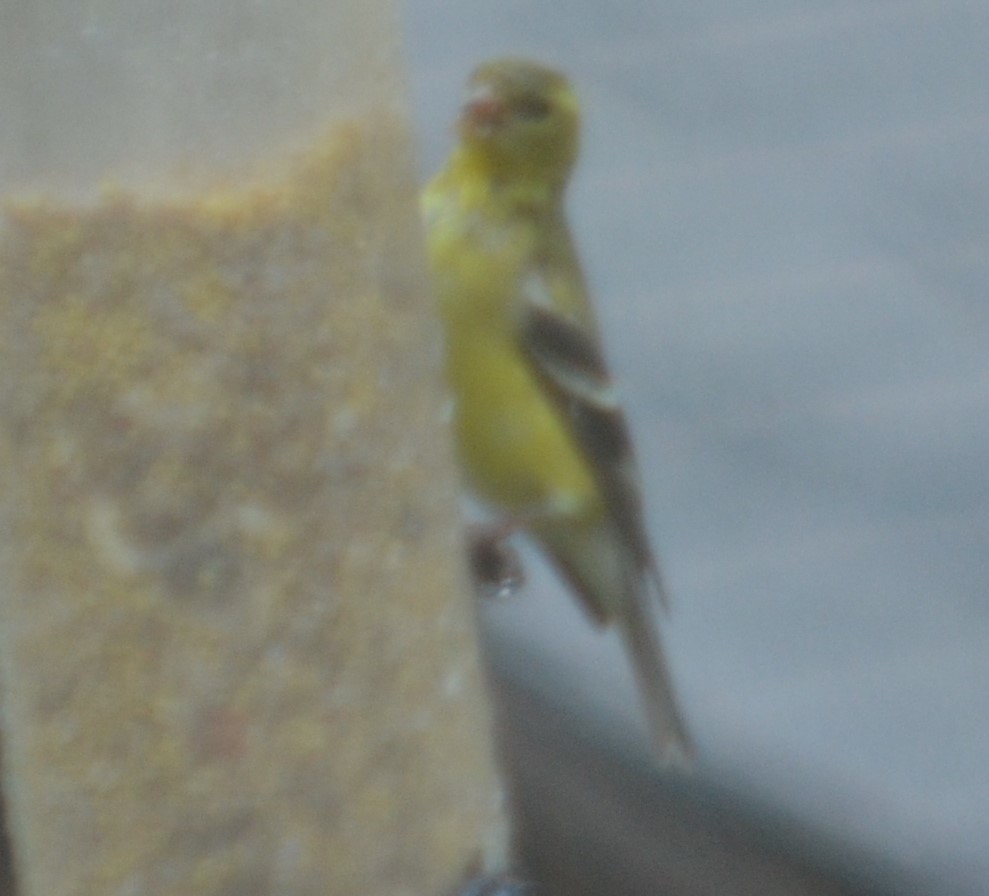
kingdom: Animalia
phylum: Chordata
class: Aves
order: Passeriformes
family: Fringillidae
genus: Spinus
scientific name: Spinus tristis
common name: American goldfinch
